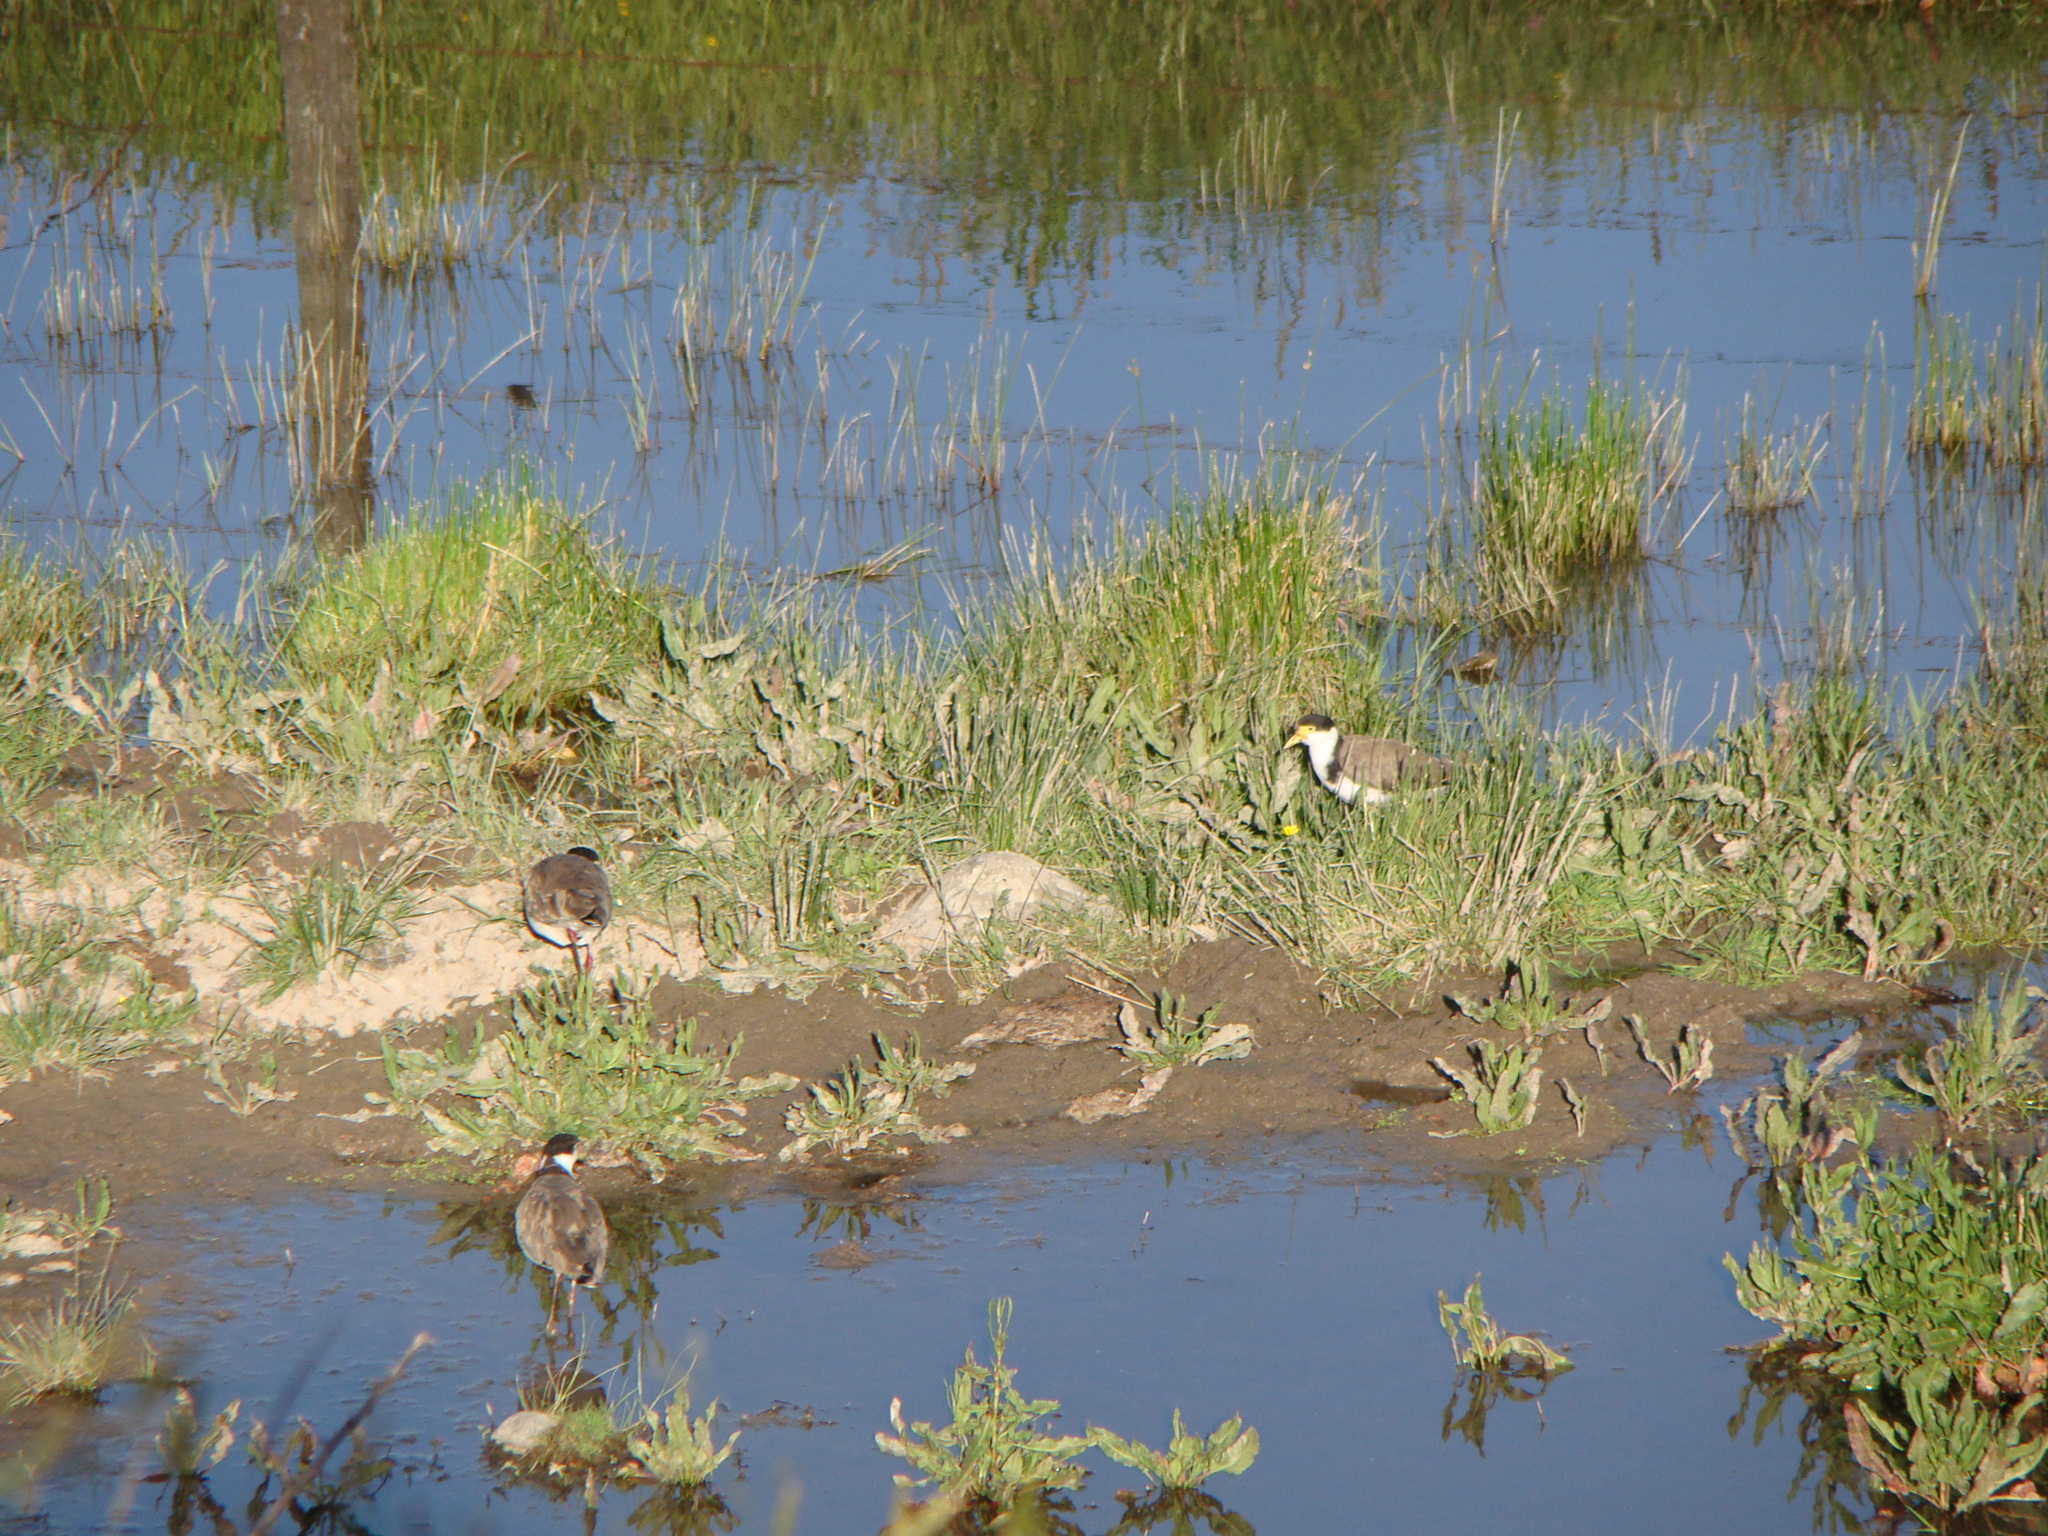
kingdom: Animalia
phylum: Chordata
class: Aves
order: Charadriiformes
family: Charadriidae
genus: Vanellus
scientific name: Vanellus miles
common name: Masked lapwing
